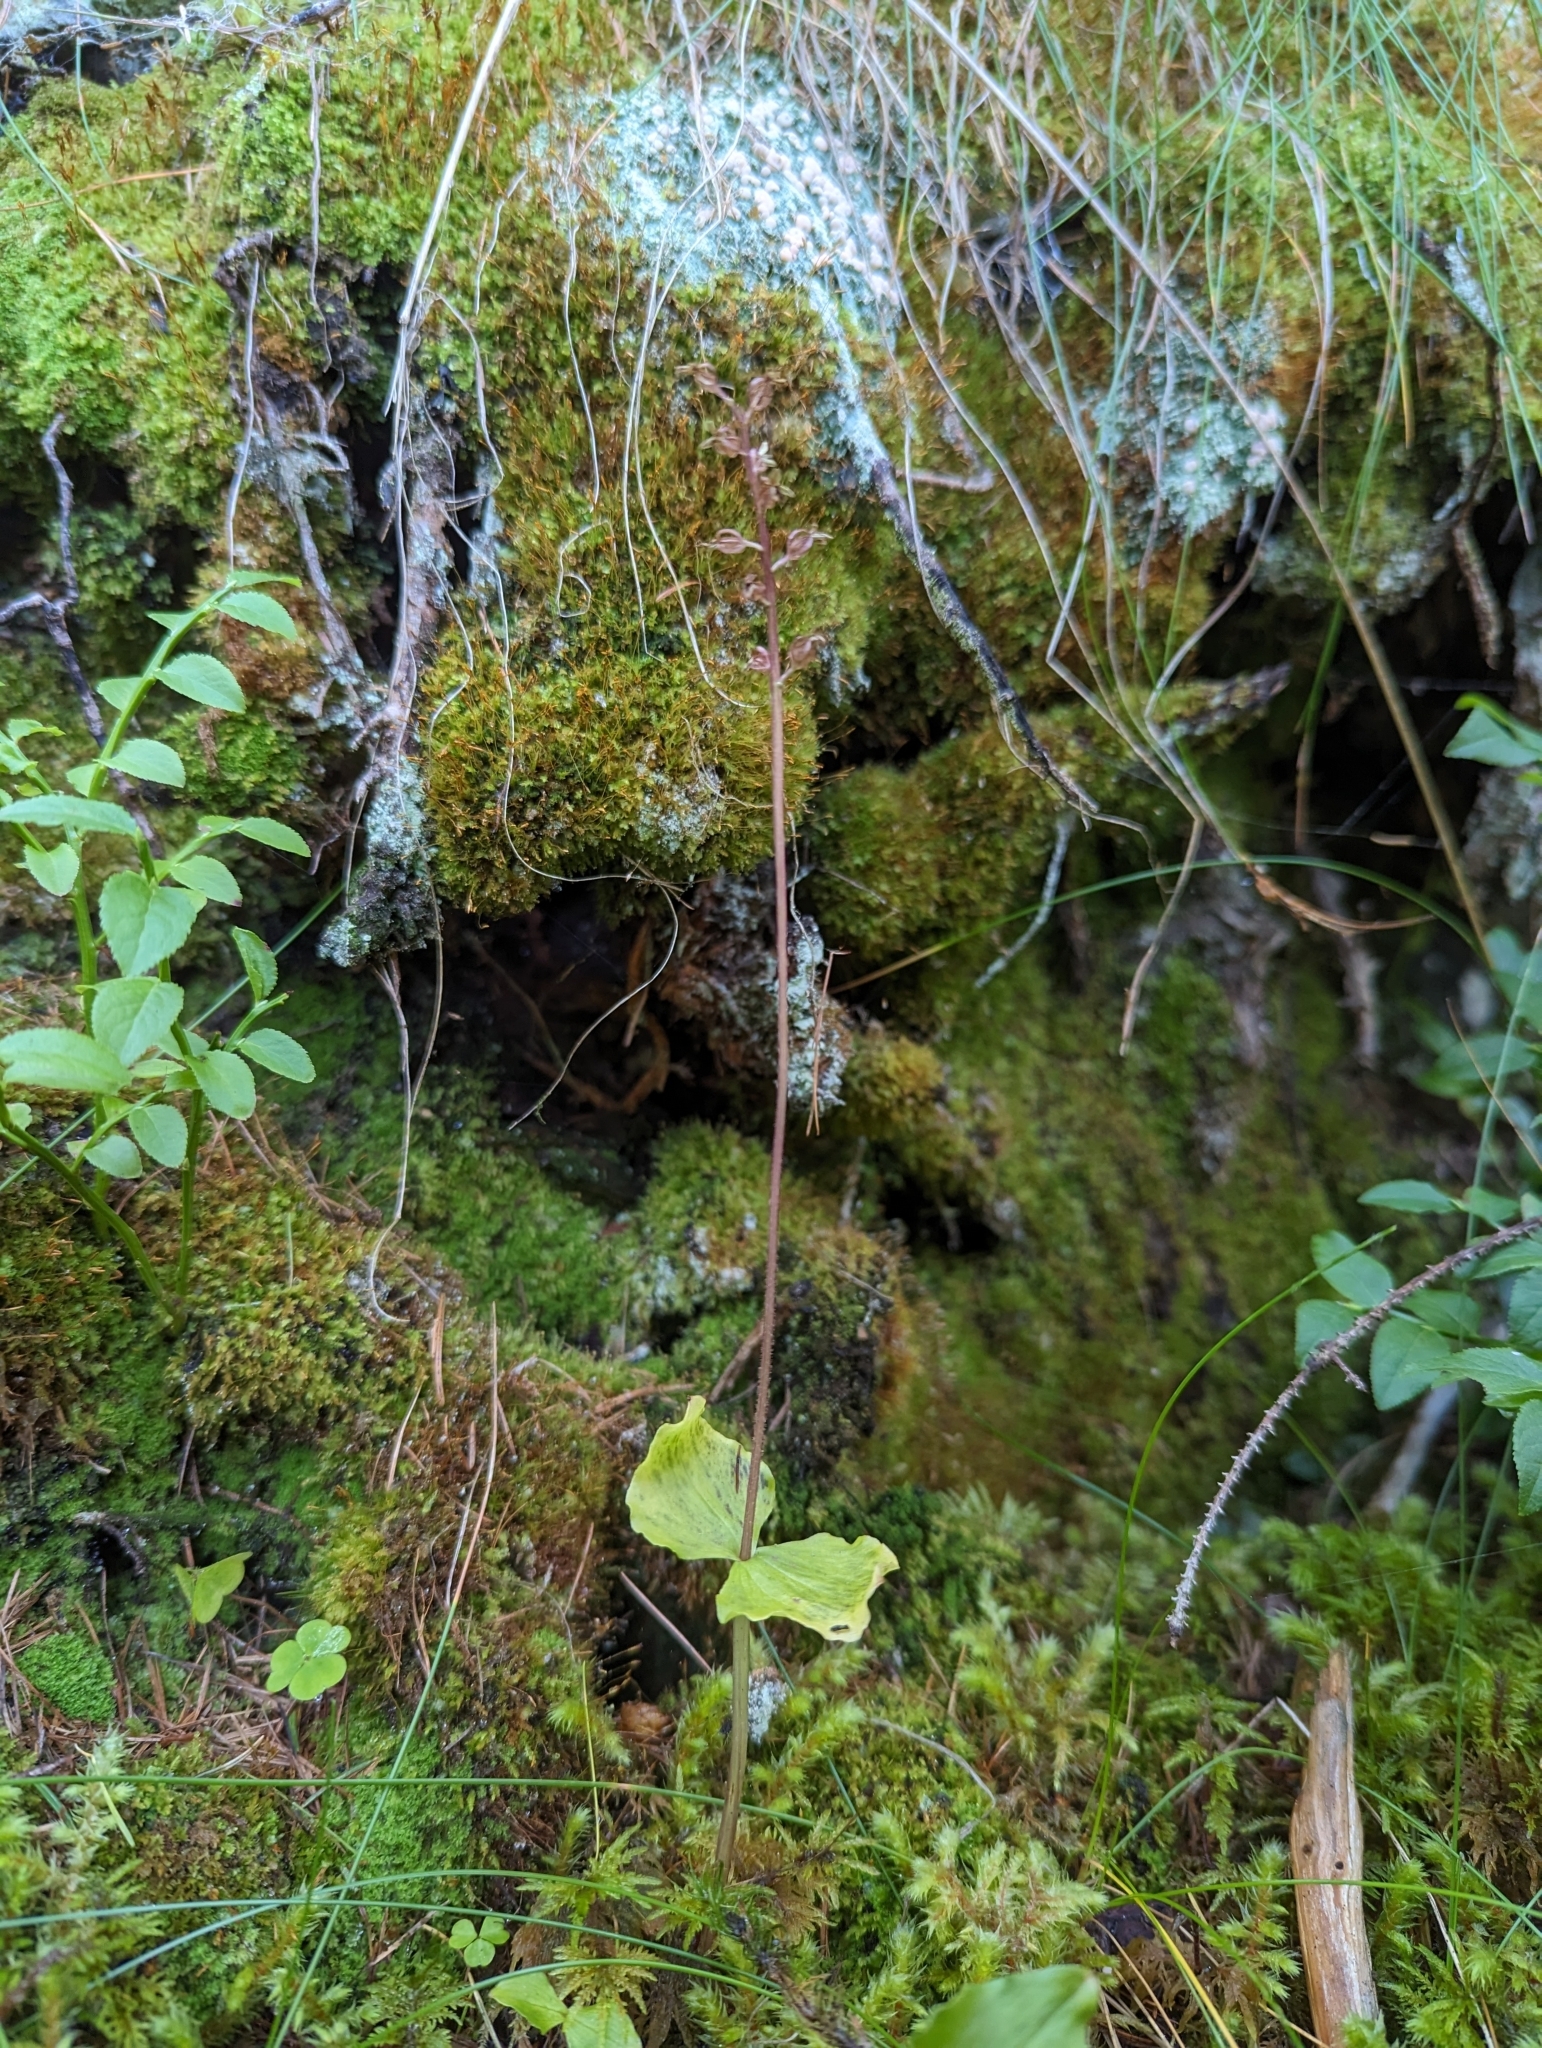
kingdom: Plantae
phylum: Tracheophyta
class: Liliopsida
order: Asparagales
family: Orchidaceae
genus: Neottia
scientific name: Neottia cordata
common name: Lesser twayblade
